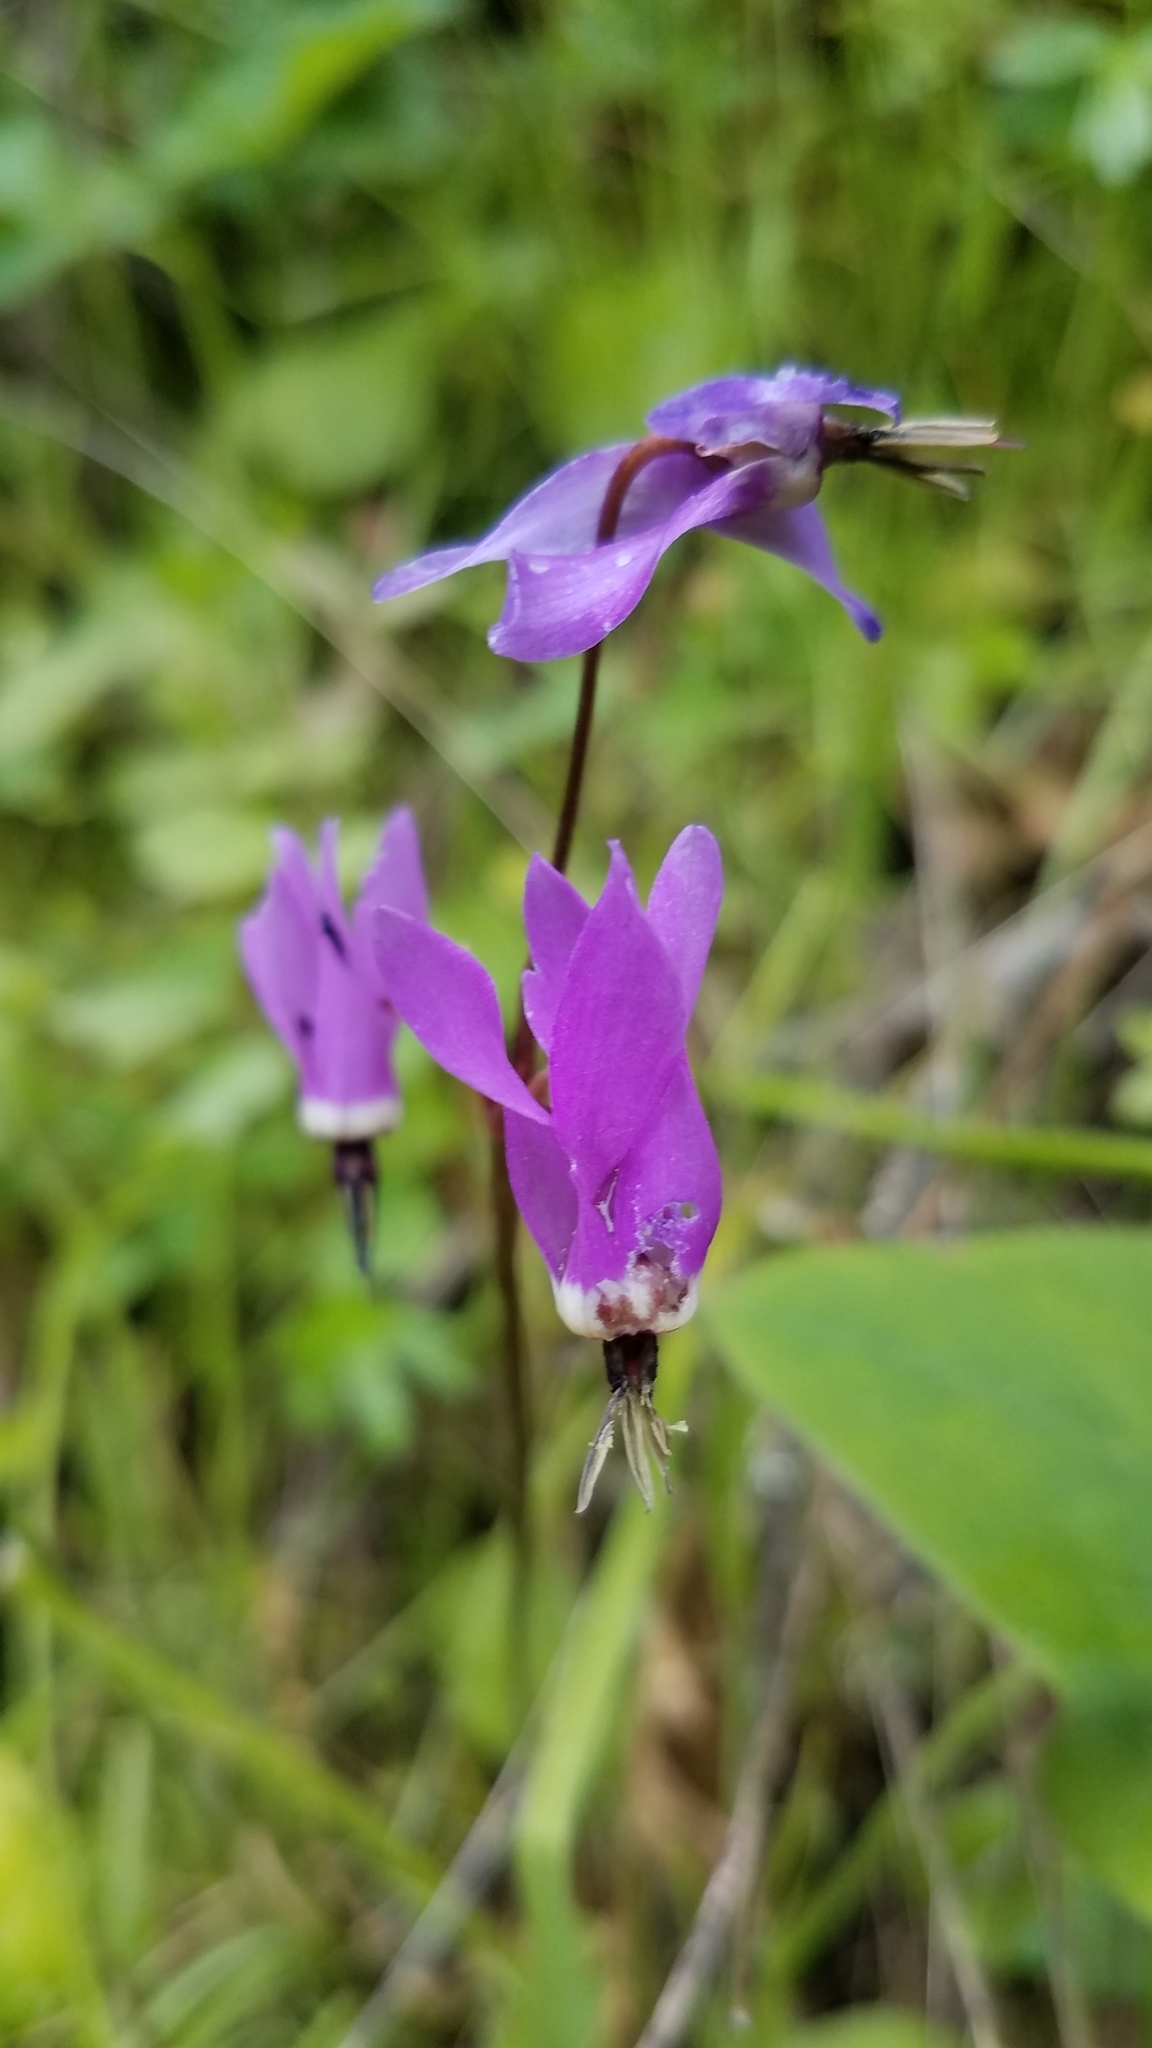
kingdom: Plantae
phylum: Tracheophyta
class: Magnoliopsida
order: Ericales
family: Primulaceae
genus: Dodecatheon
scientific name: Dodecatheon hendersonii
